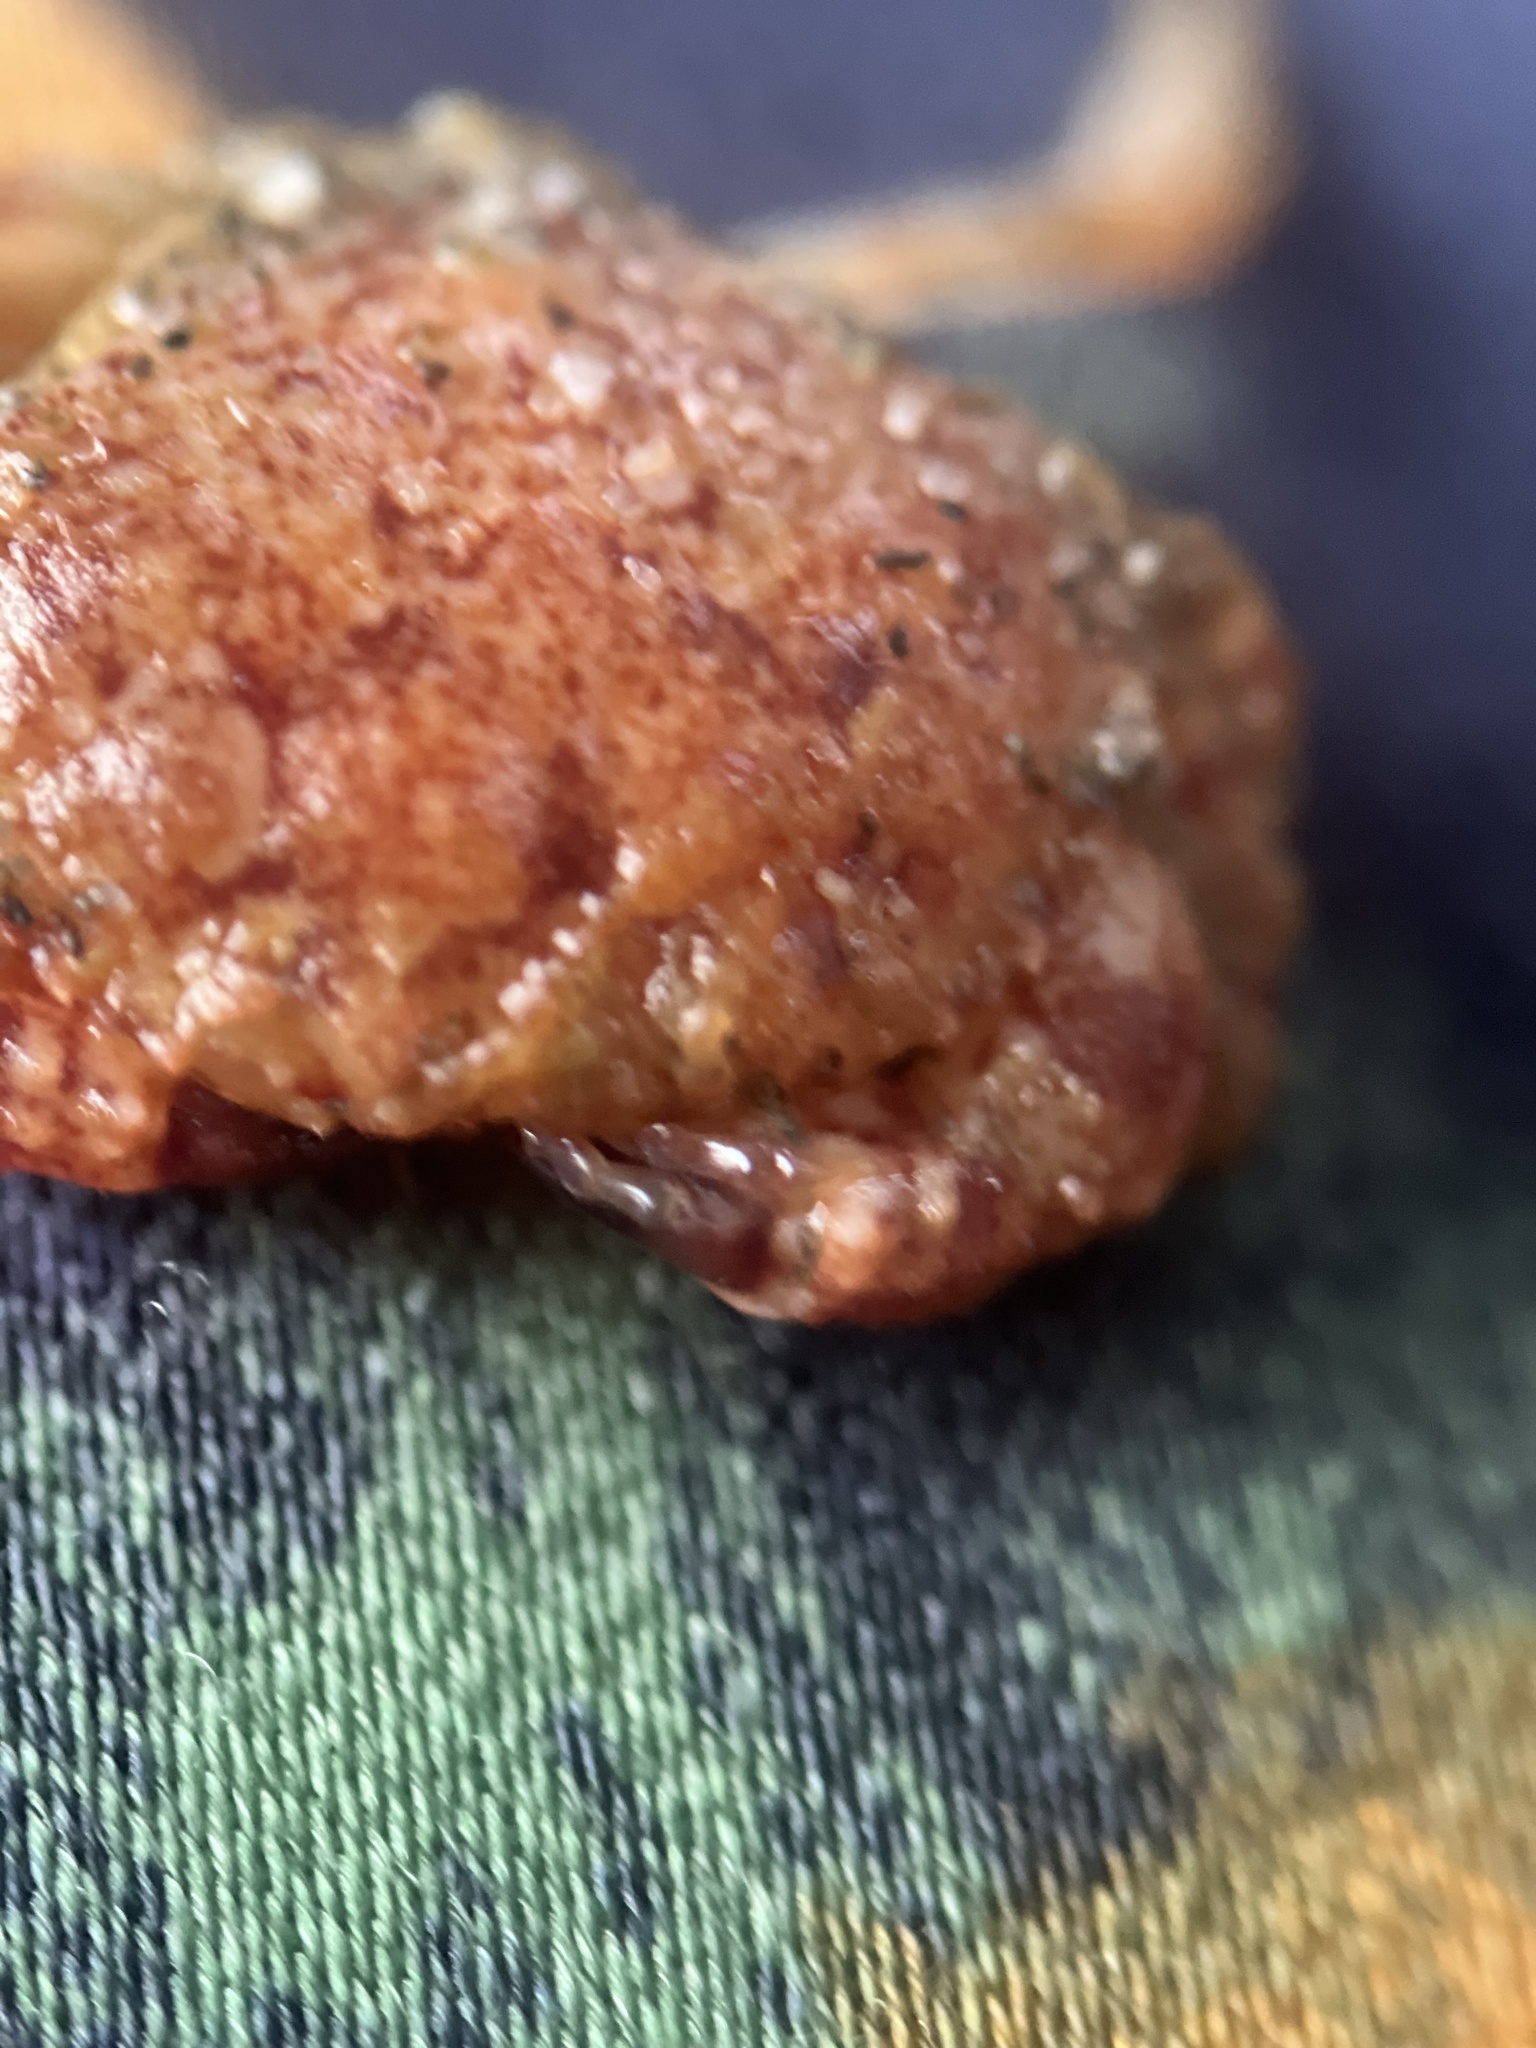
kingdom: Animalia
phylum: Arthropoda
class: Malacostraca
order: Decapoda
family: Cancridae
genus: Glebocarcinus
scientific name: Glebocarcinus oregonensis
